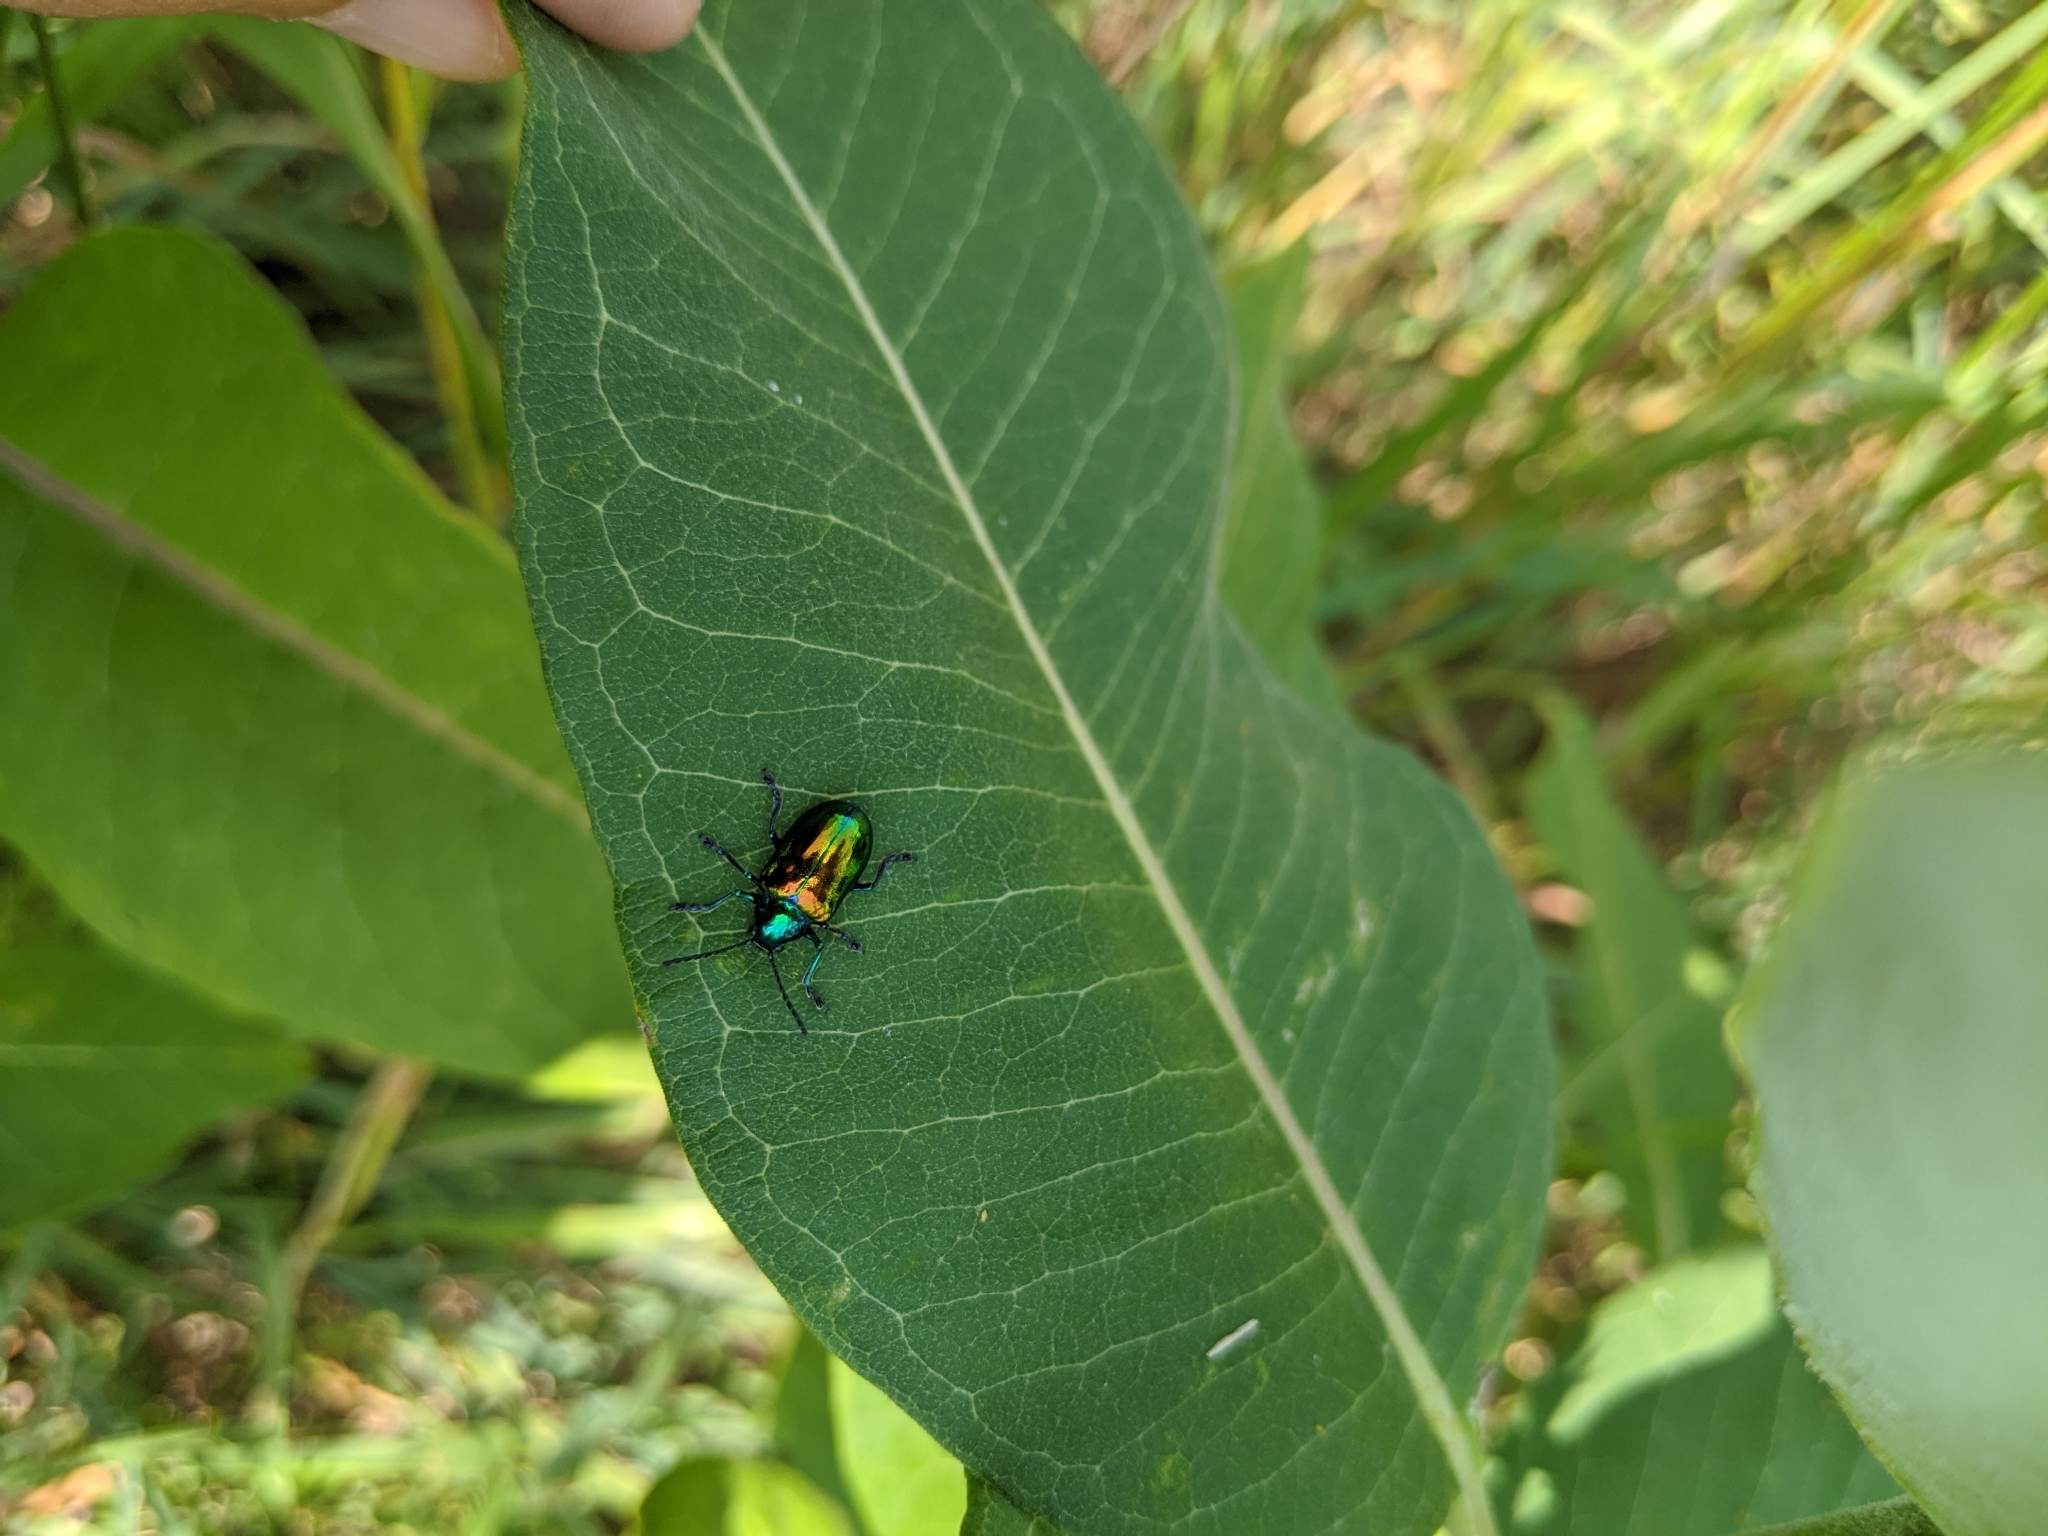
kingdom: Animalia
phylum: Arthropoda
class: Insecta
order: Coleoptera
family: Chrysomelidae
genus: Chrysochus
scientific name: Chrysochus auratus
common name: Dogbane leaf beetle
